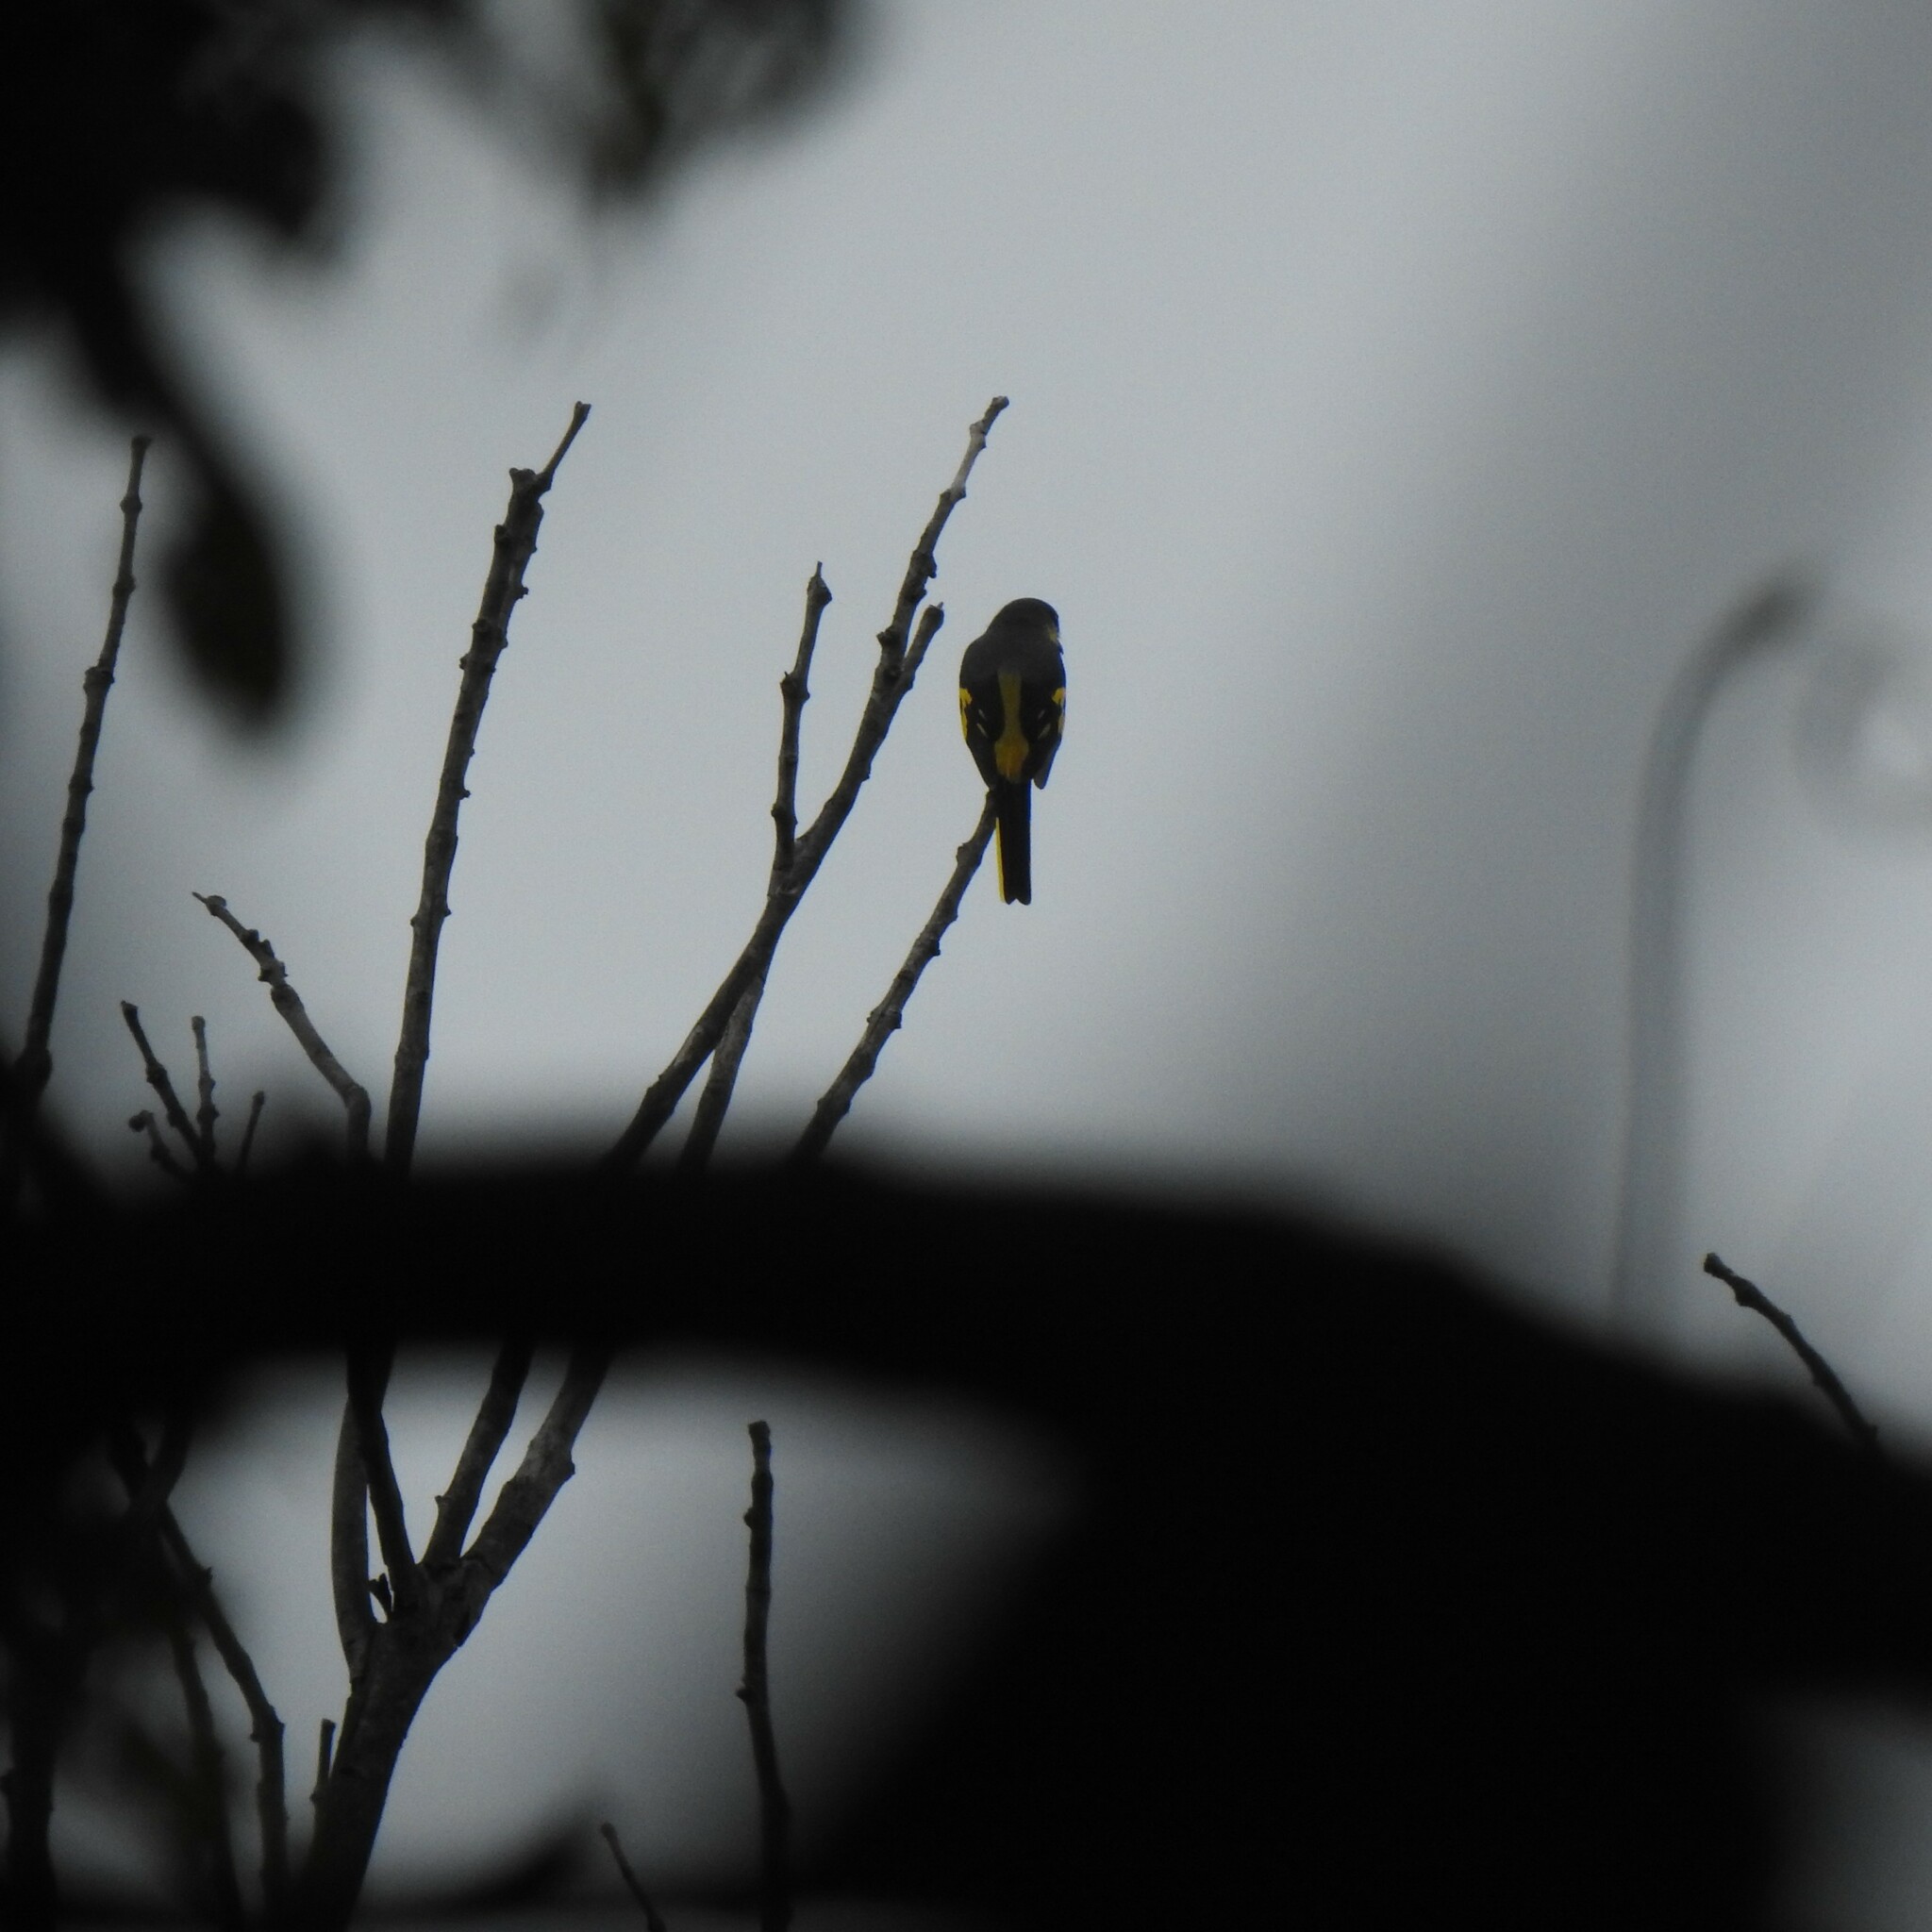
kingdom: Animalia
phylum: Chordata
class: Aves
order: Passeriformes
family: Campephagidae
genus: Pericrocotus
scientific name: Pericrocotus flammeus
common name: Orange minivet
